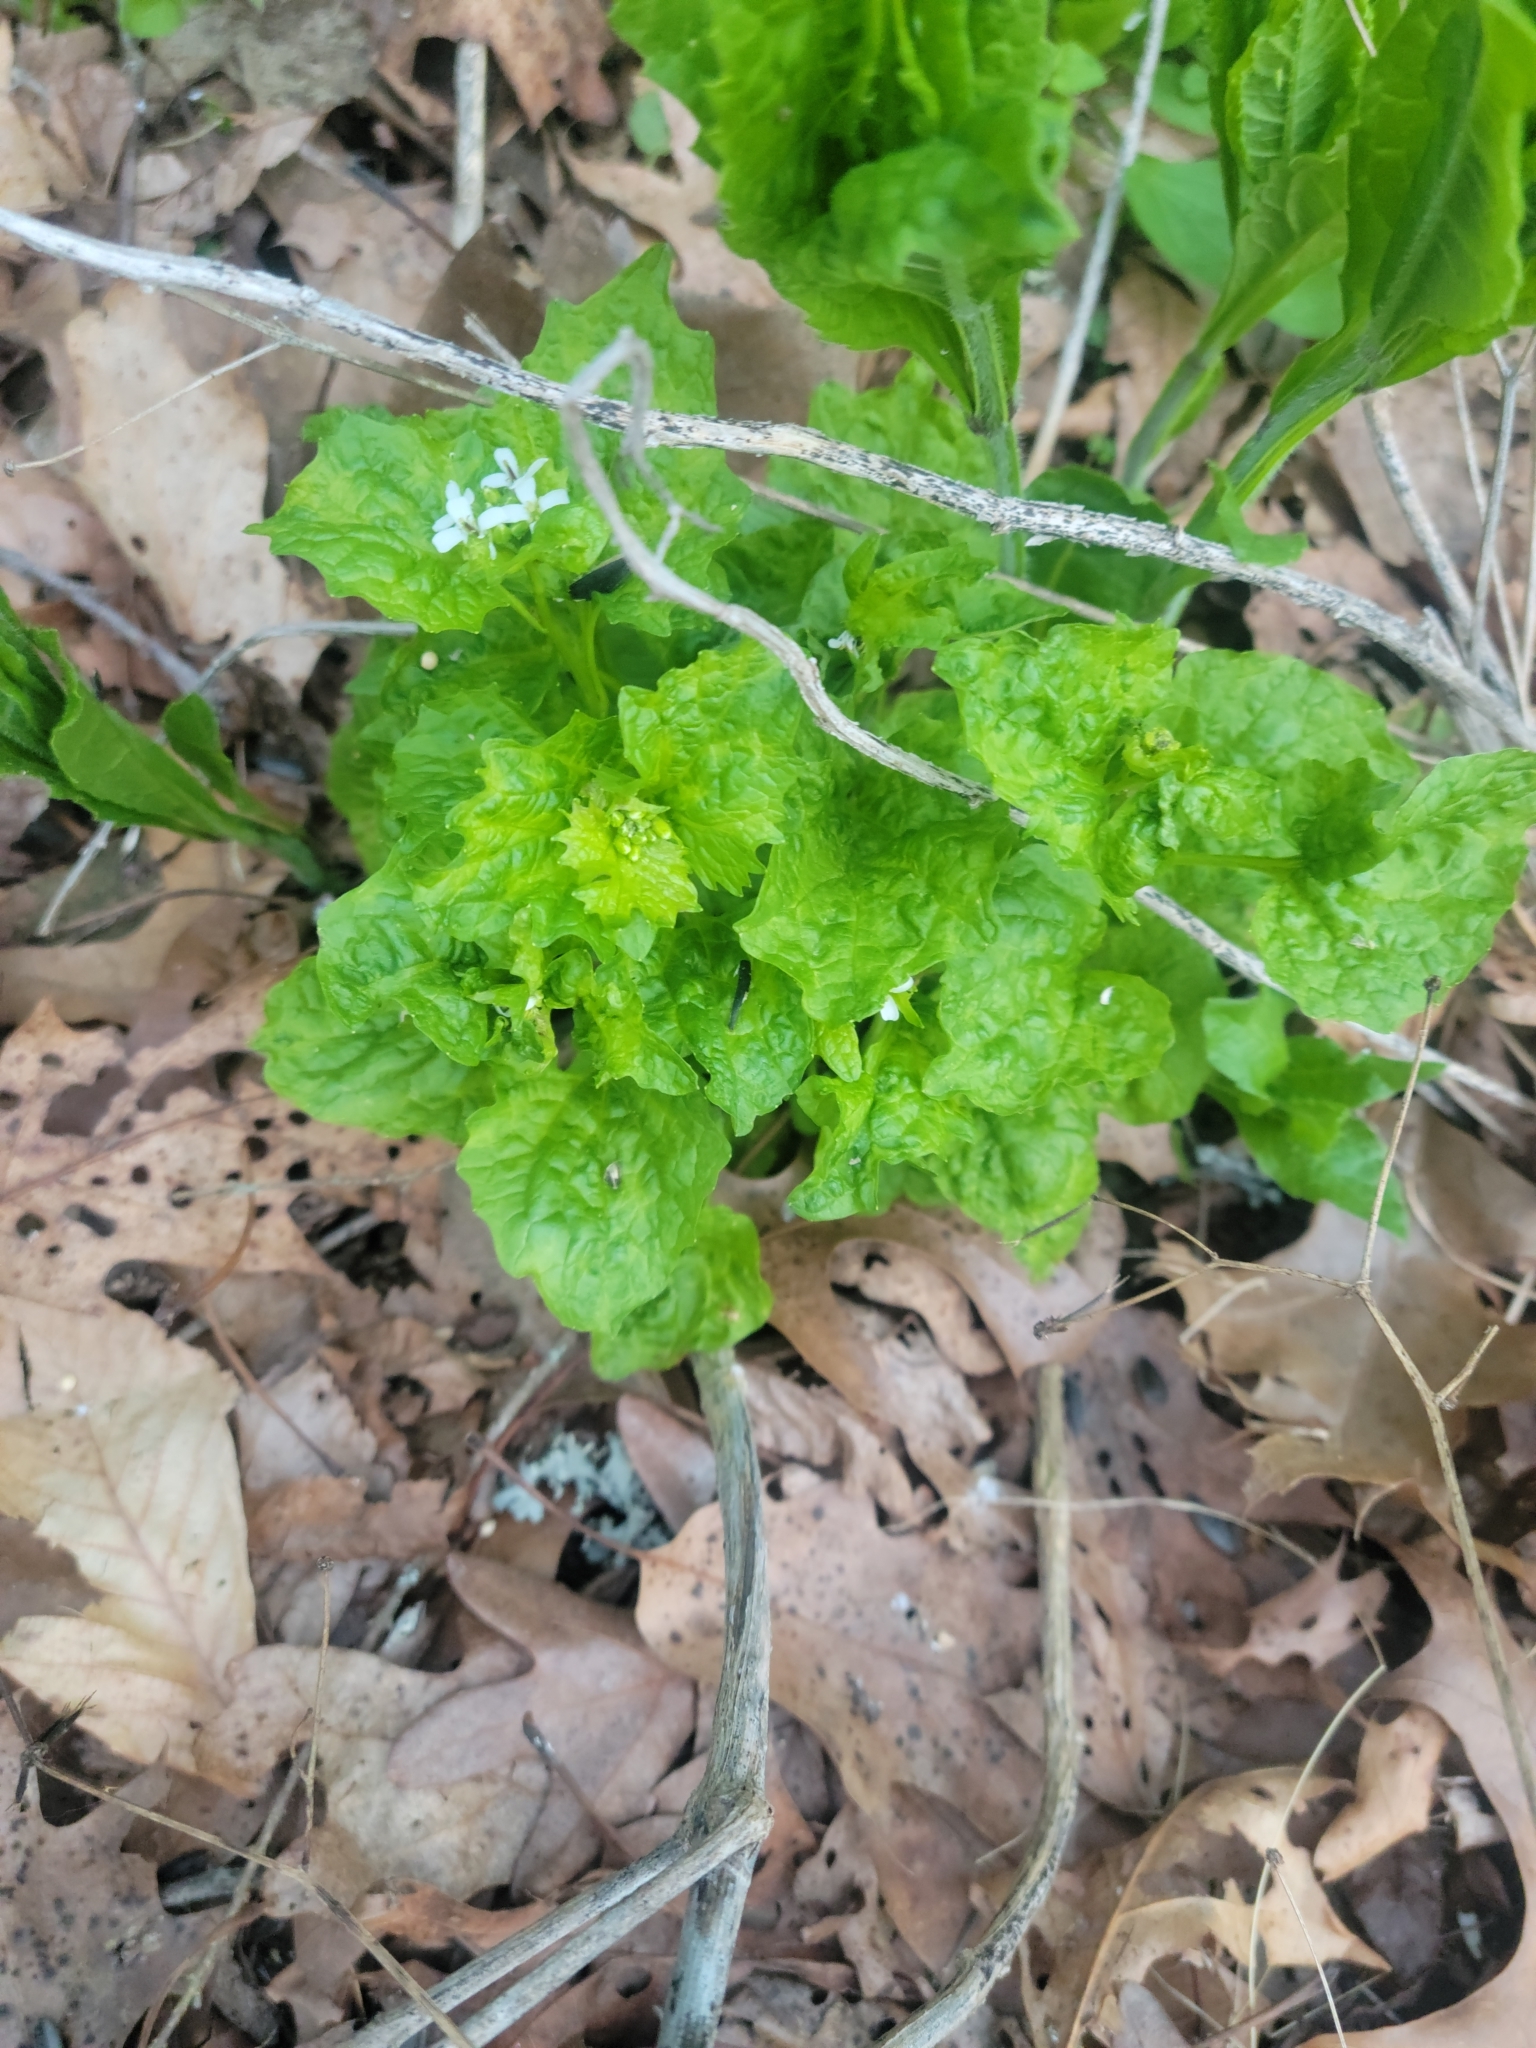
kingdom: Plantae
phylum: Tracheophyta
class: Magnoliopsida
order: Brassicales
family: Brassicaceae
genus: Alliaria
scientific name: Alliaria petiolata
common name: Garlic mustard
